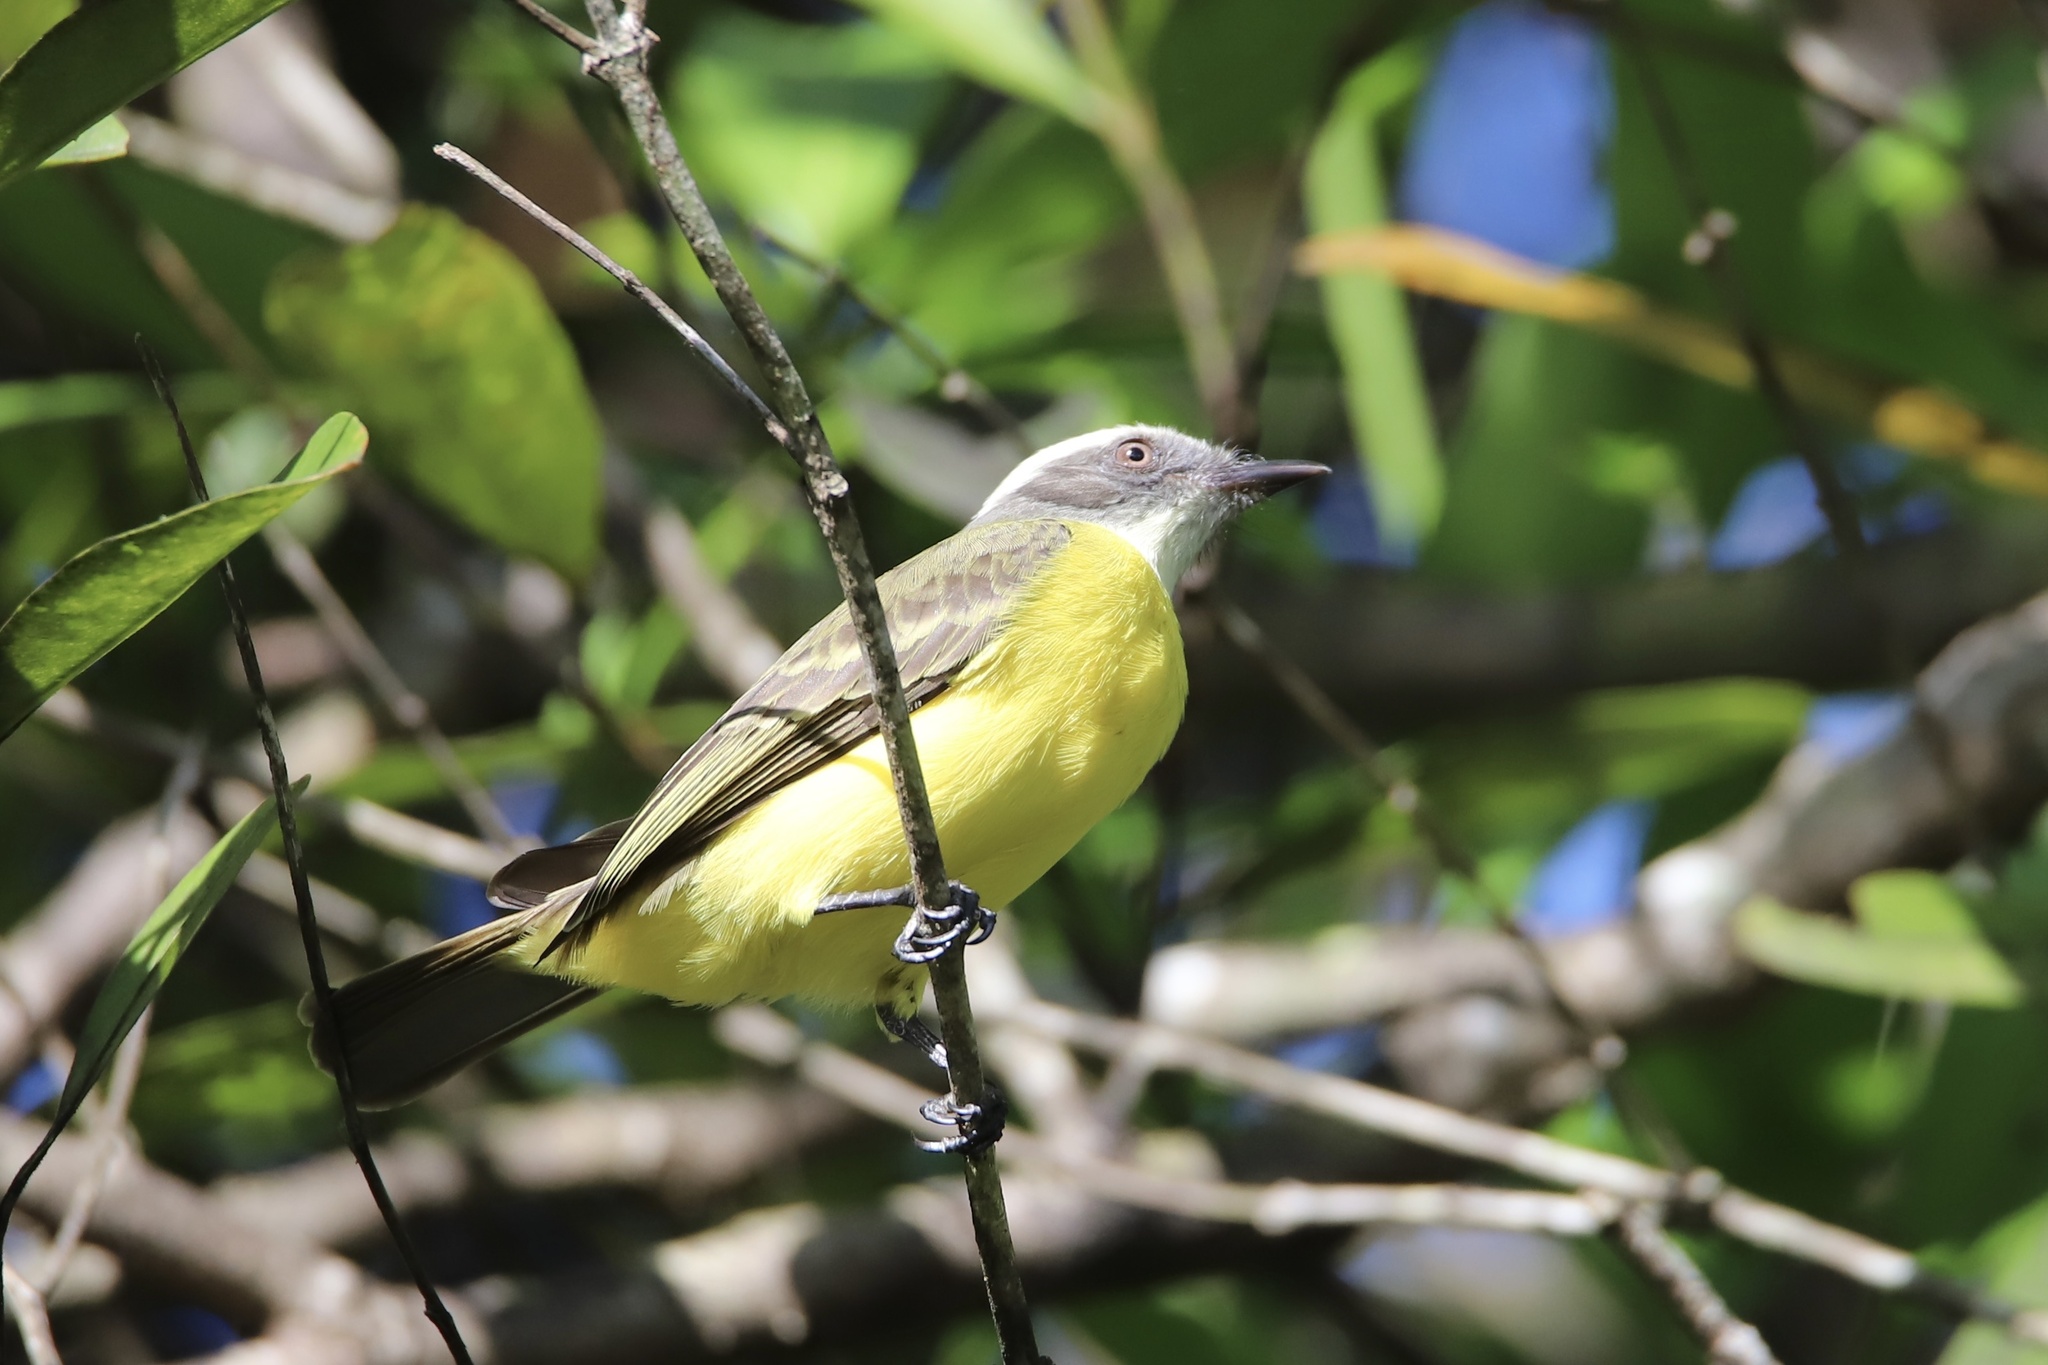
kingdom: Animalia
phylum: Chordata
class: Aves
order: Passeriformes
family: Tyrannidae
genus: Myiozetetes
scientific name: Myiozetetes similis
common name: Social flycatcher
